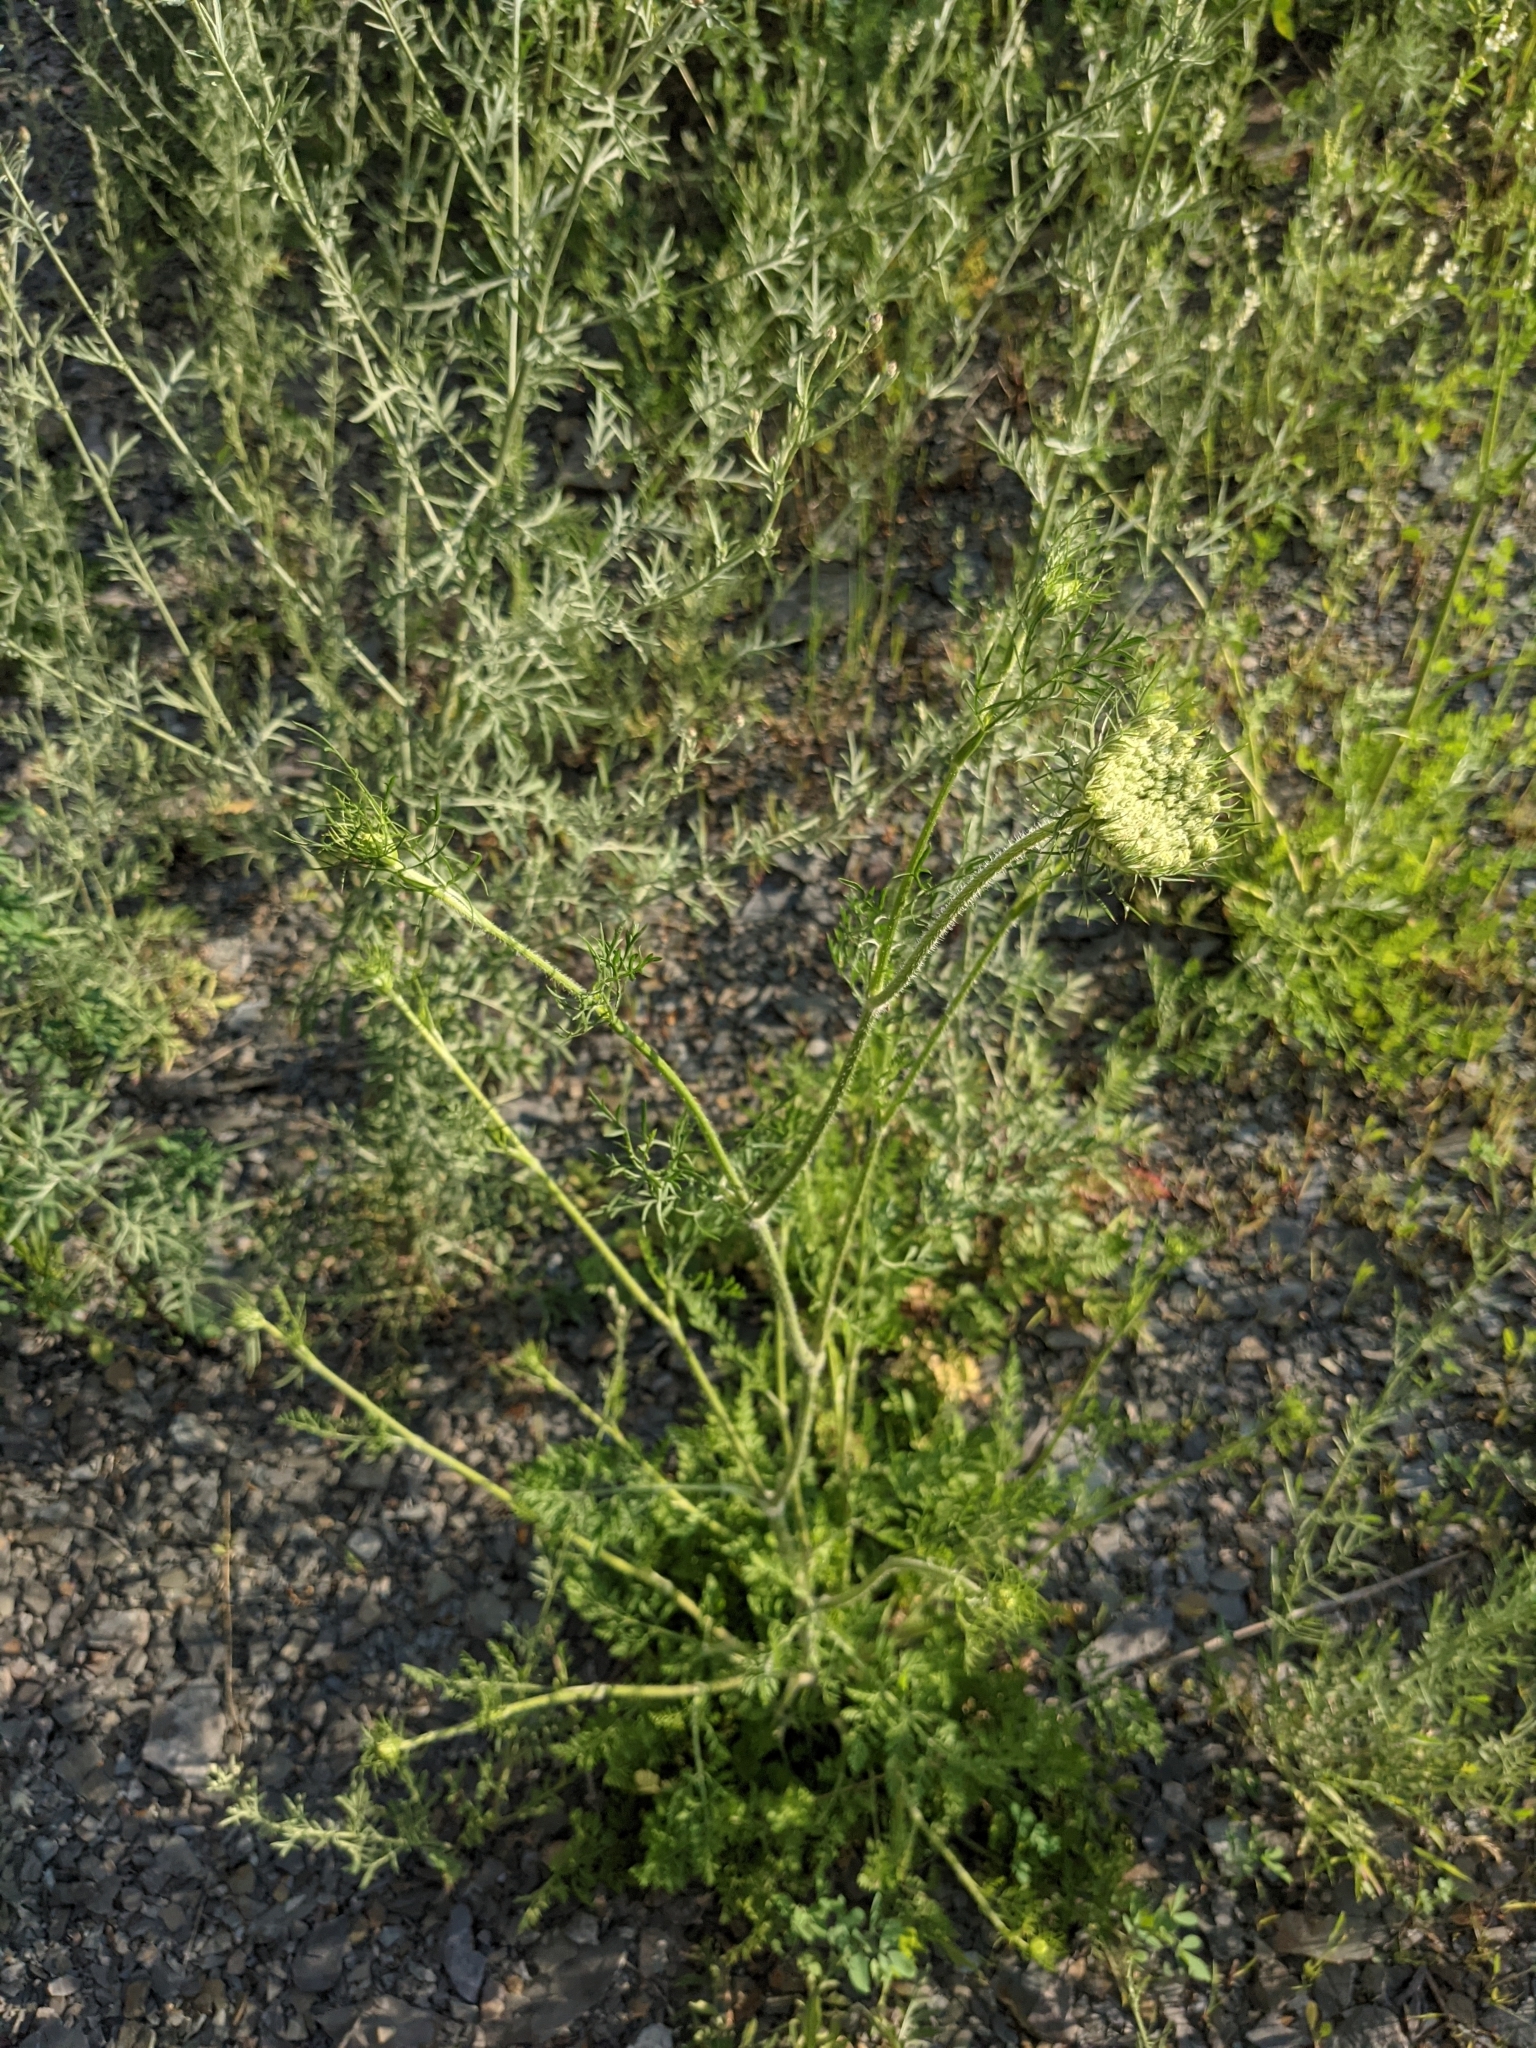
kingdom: Plantae
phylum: Tracheophyta
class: Magnoliopsida
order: Apiales
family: Apiaceae
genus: Daucus
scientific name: Daucus carota
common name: Wild carrot
